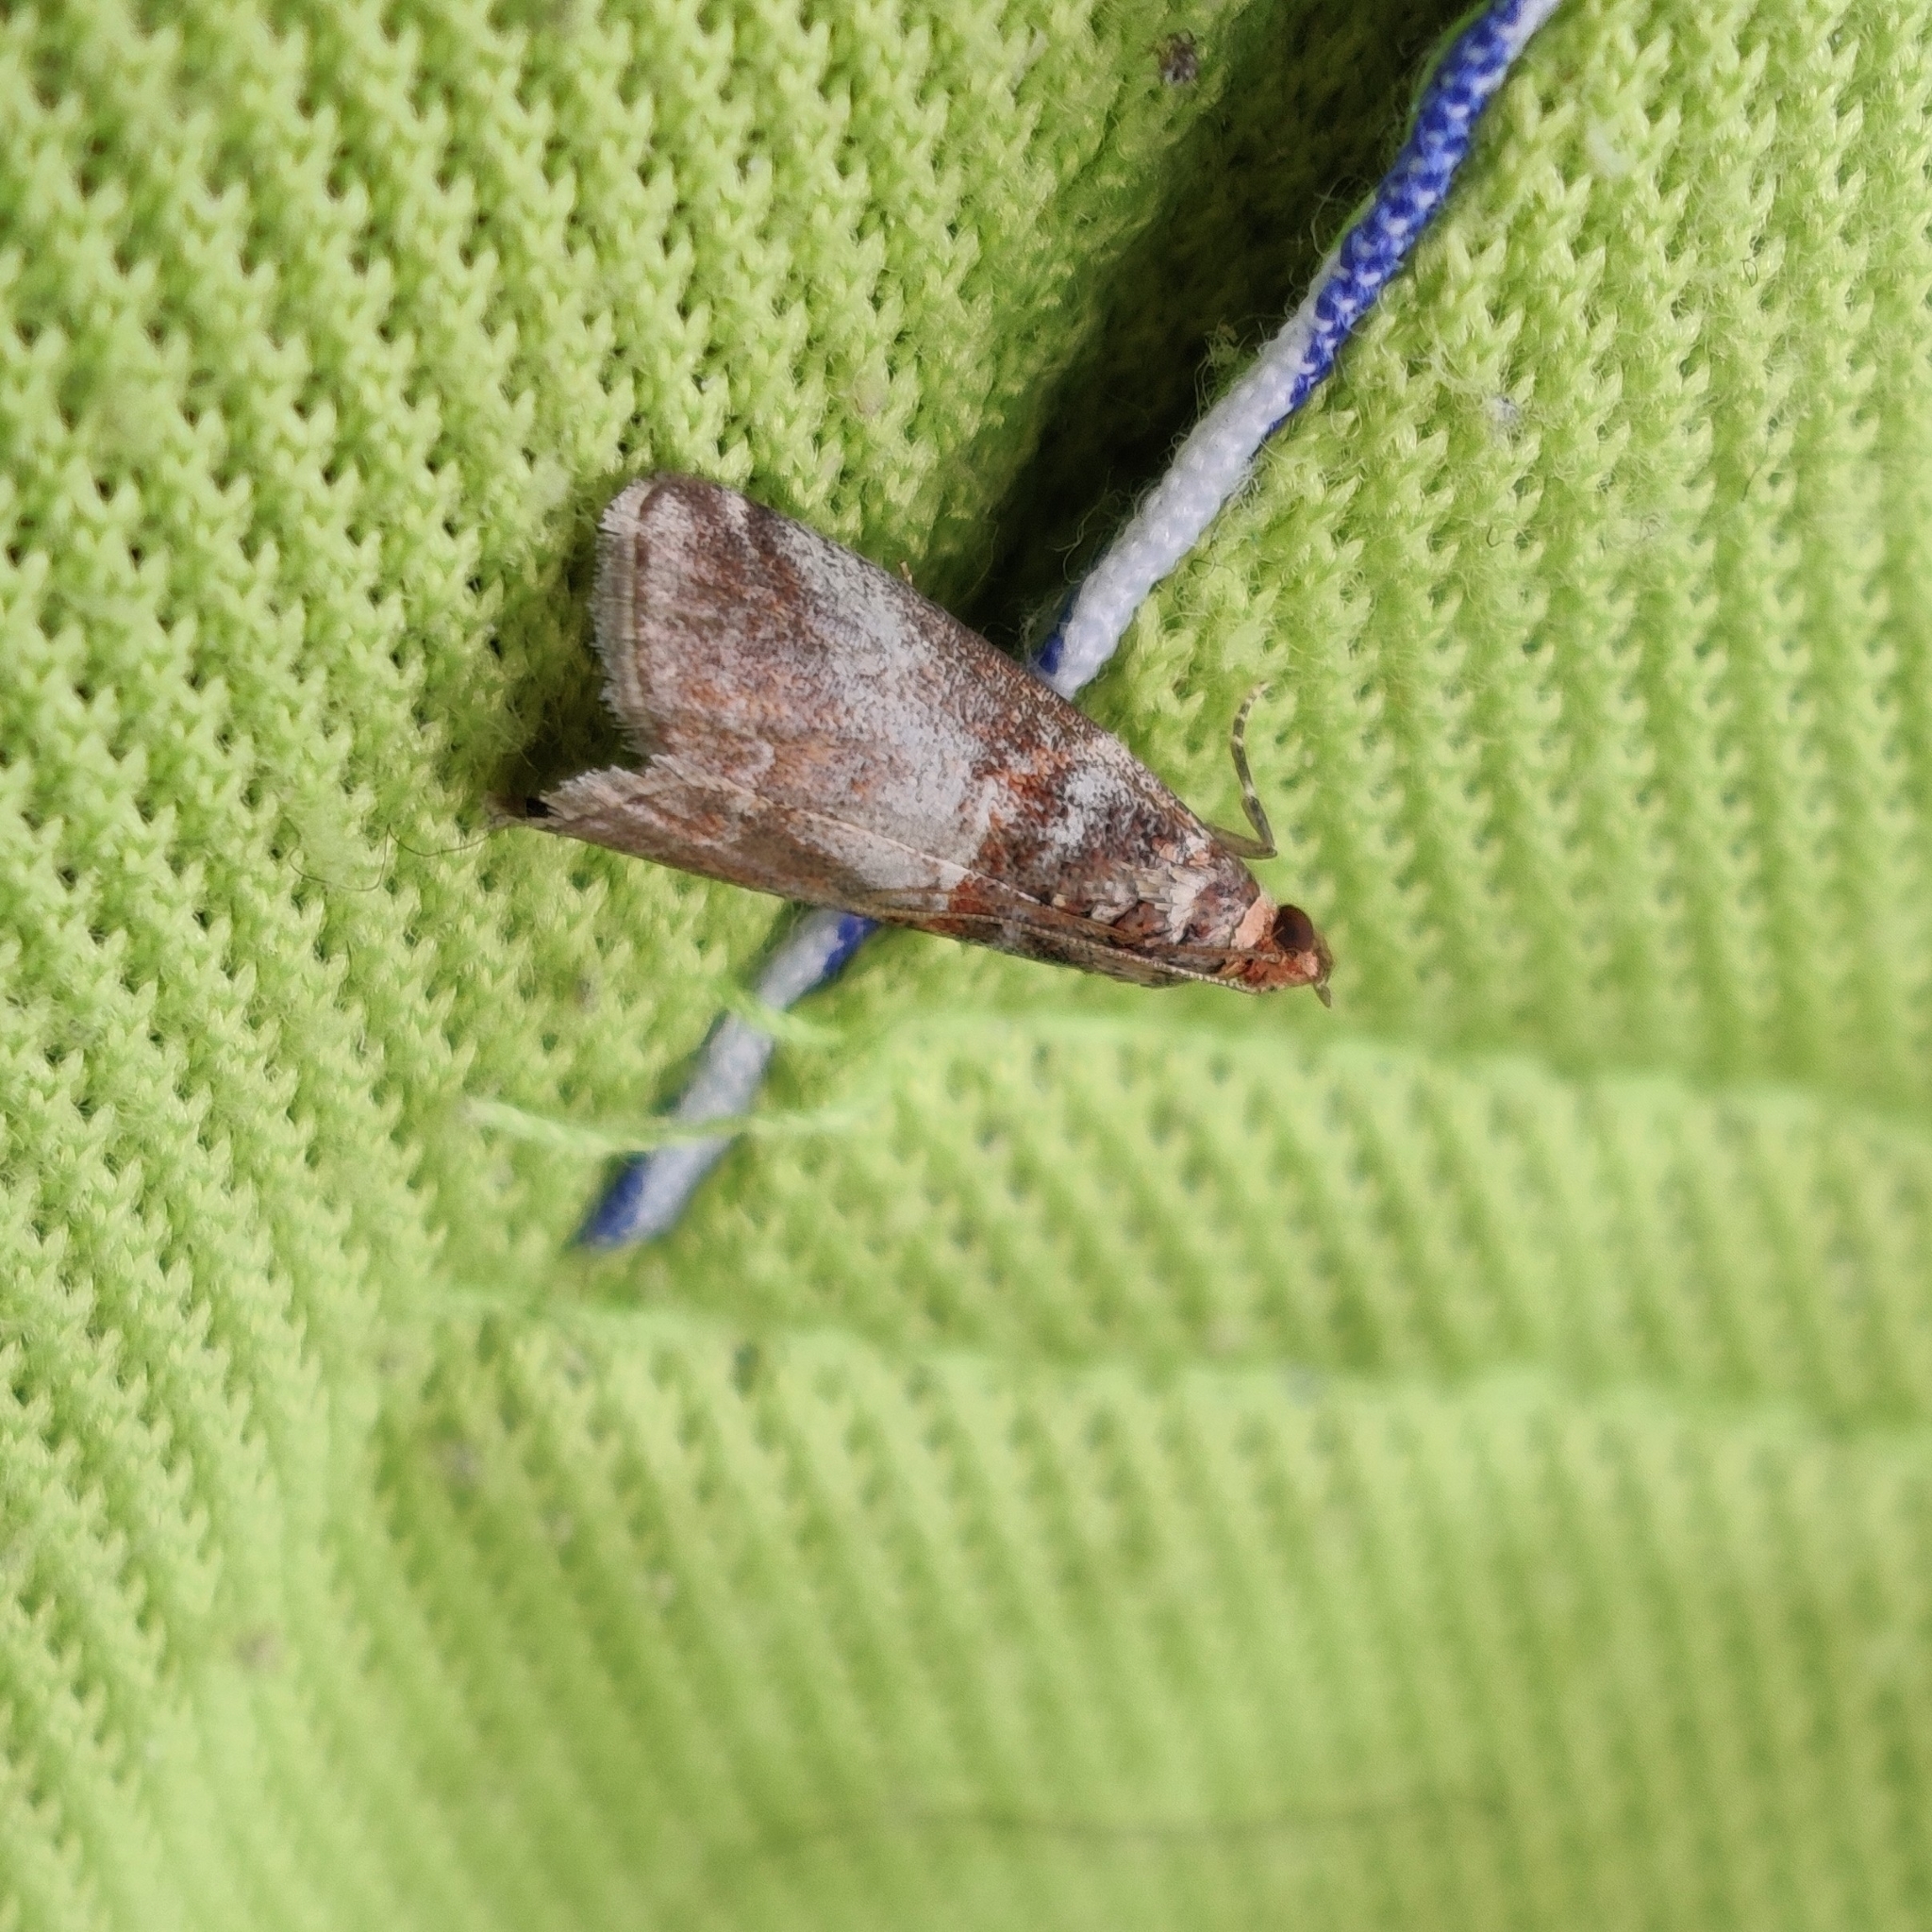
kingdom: Animalia
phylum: Arthropoda
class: Insecta
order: Lepidoptera
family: Pyralidae
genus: Acrobasis
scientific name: Acrobasis advenella
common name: Grey knot-horn
